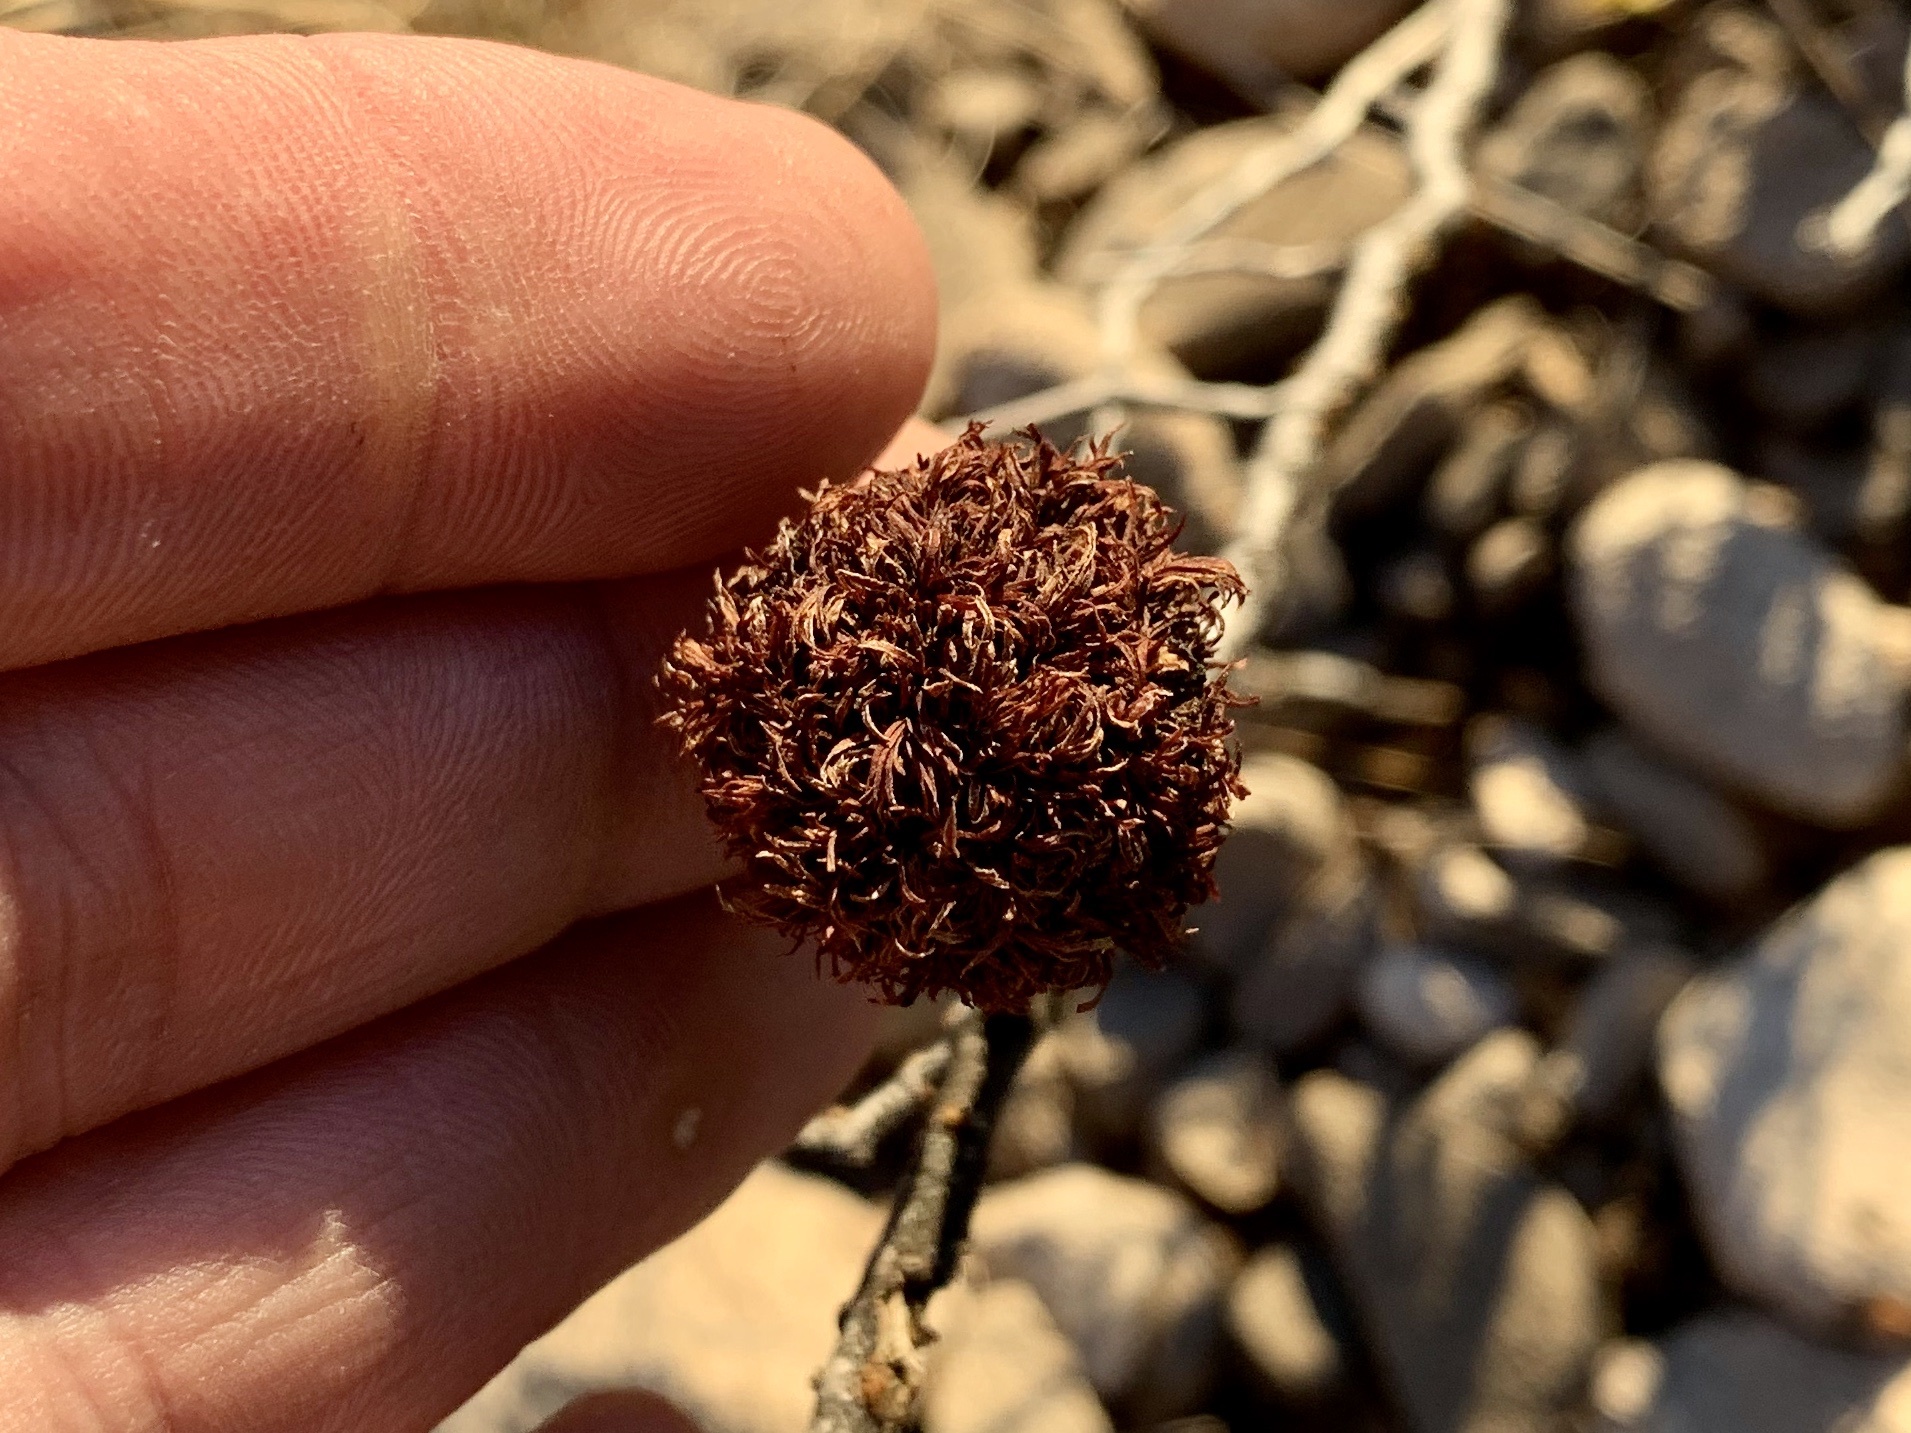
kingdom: Animalia
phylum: Arthropoda
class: Insecta
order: Diptera
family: Cecidomyiidae
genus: Asphondylia
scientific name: Asphondylia auripila
